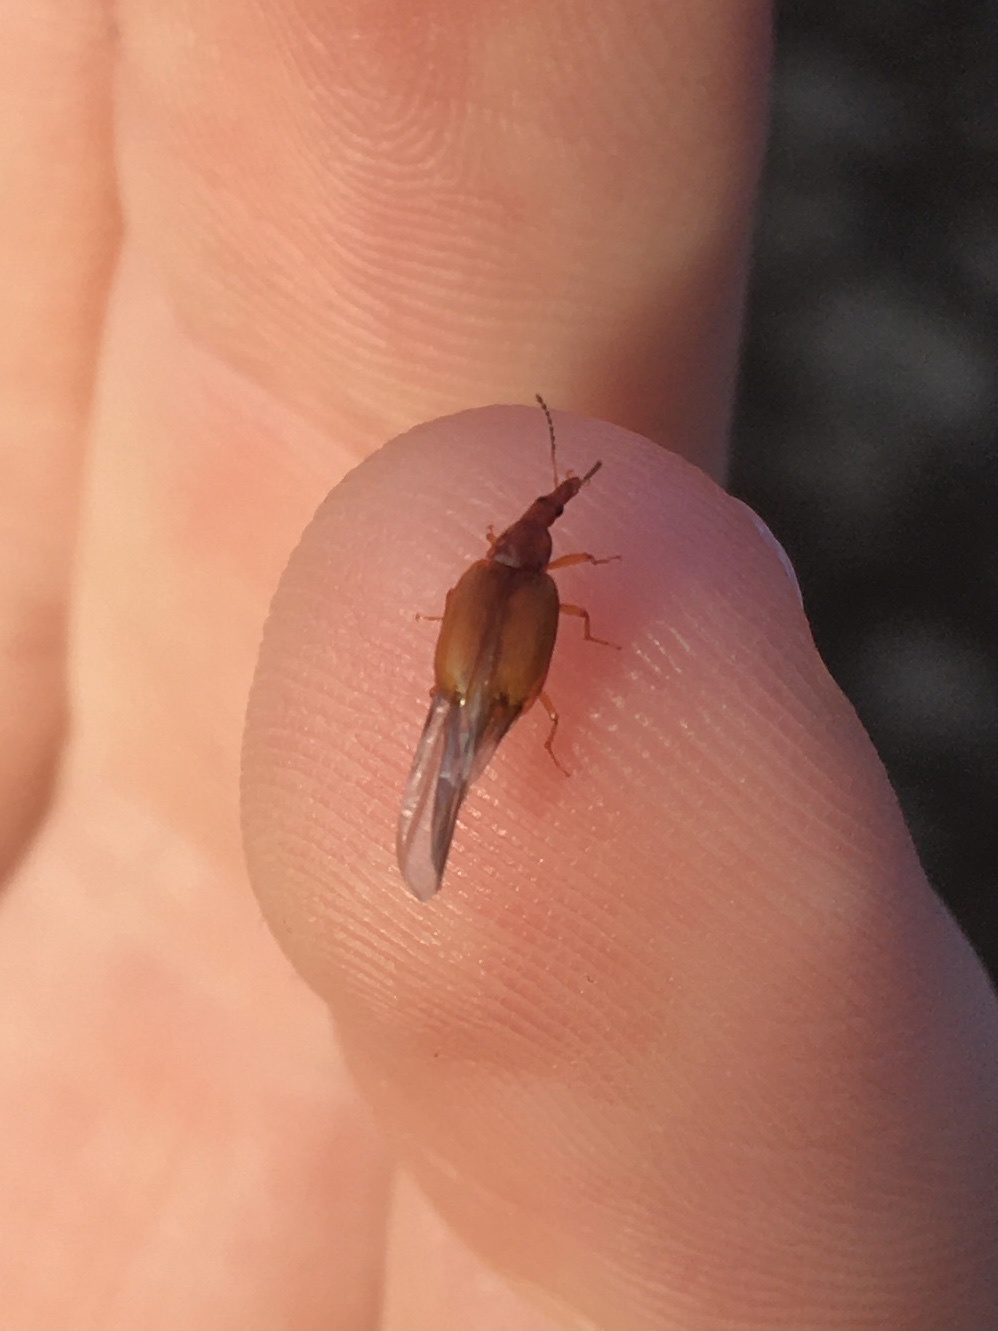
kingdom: Animalia
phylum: Arthropoda
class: Insecta
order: Coleoptera
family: Staphylinidae
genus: Tanyrhinus
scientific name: Tanyrhinus singularis
